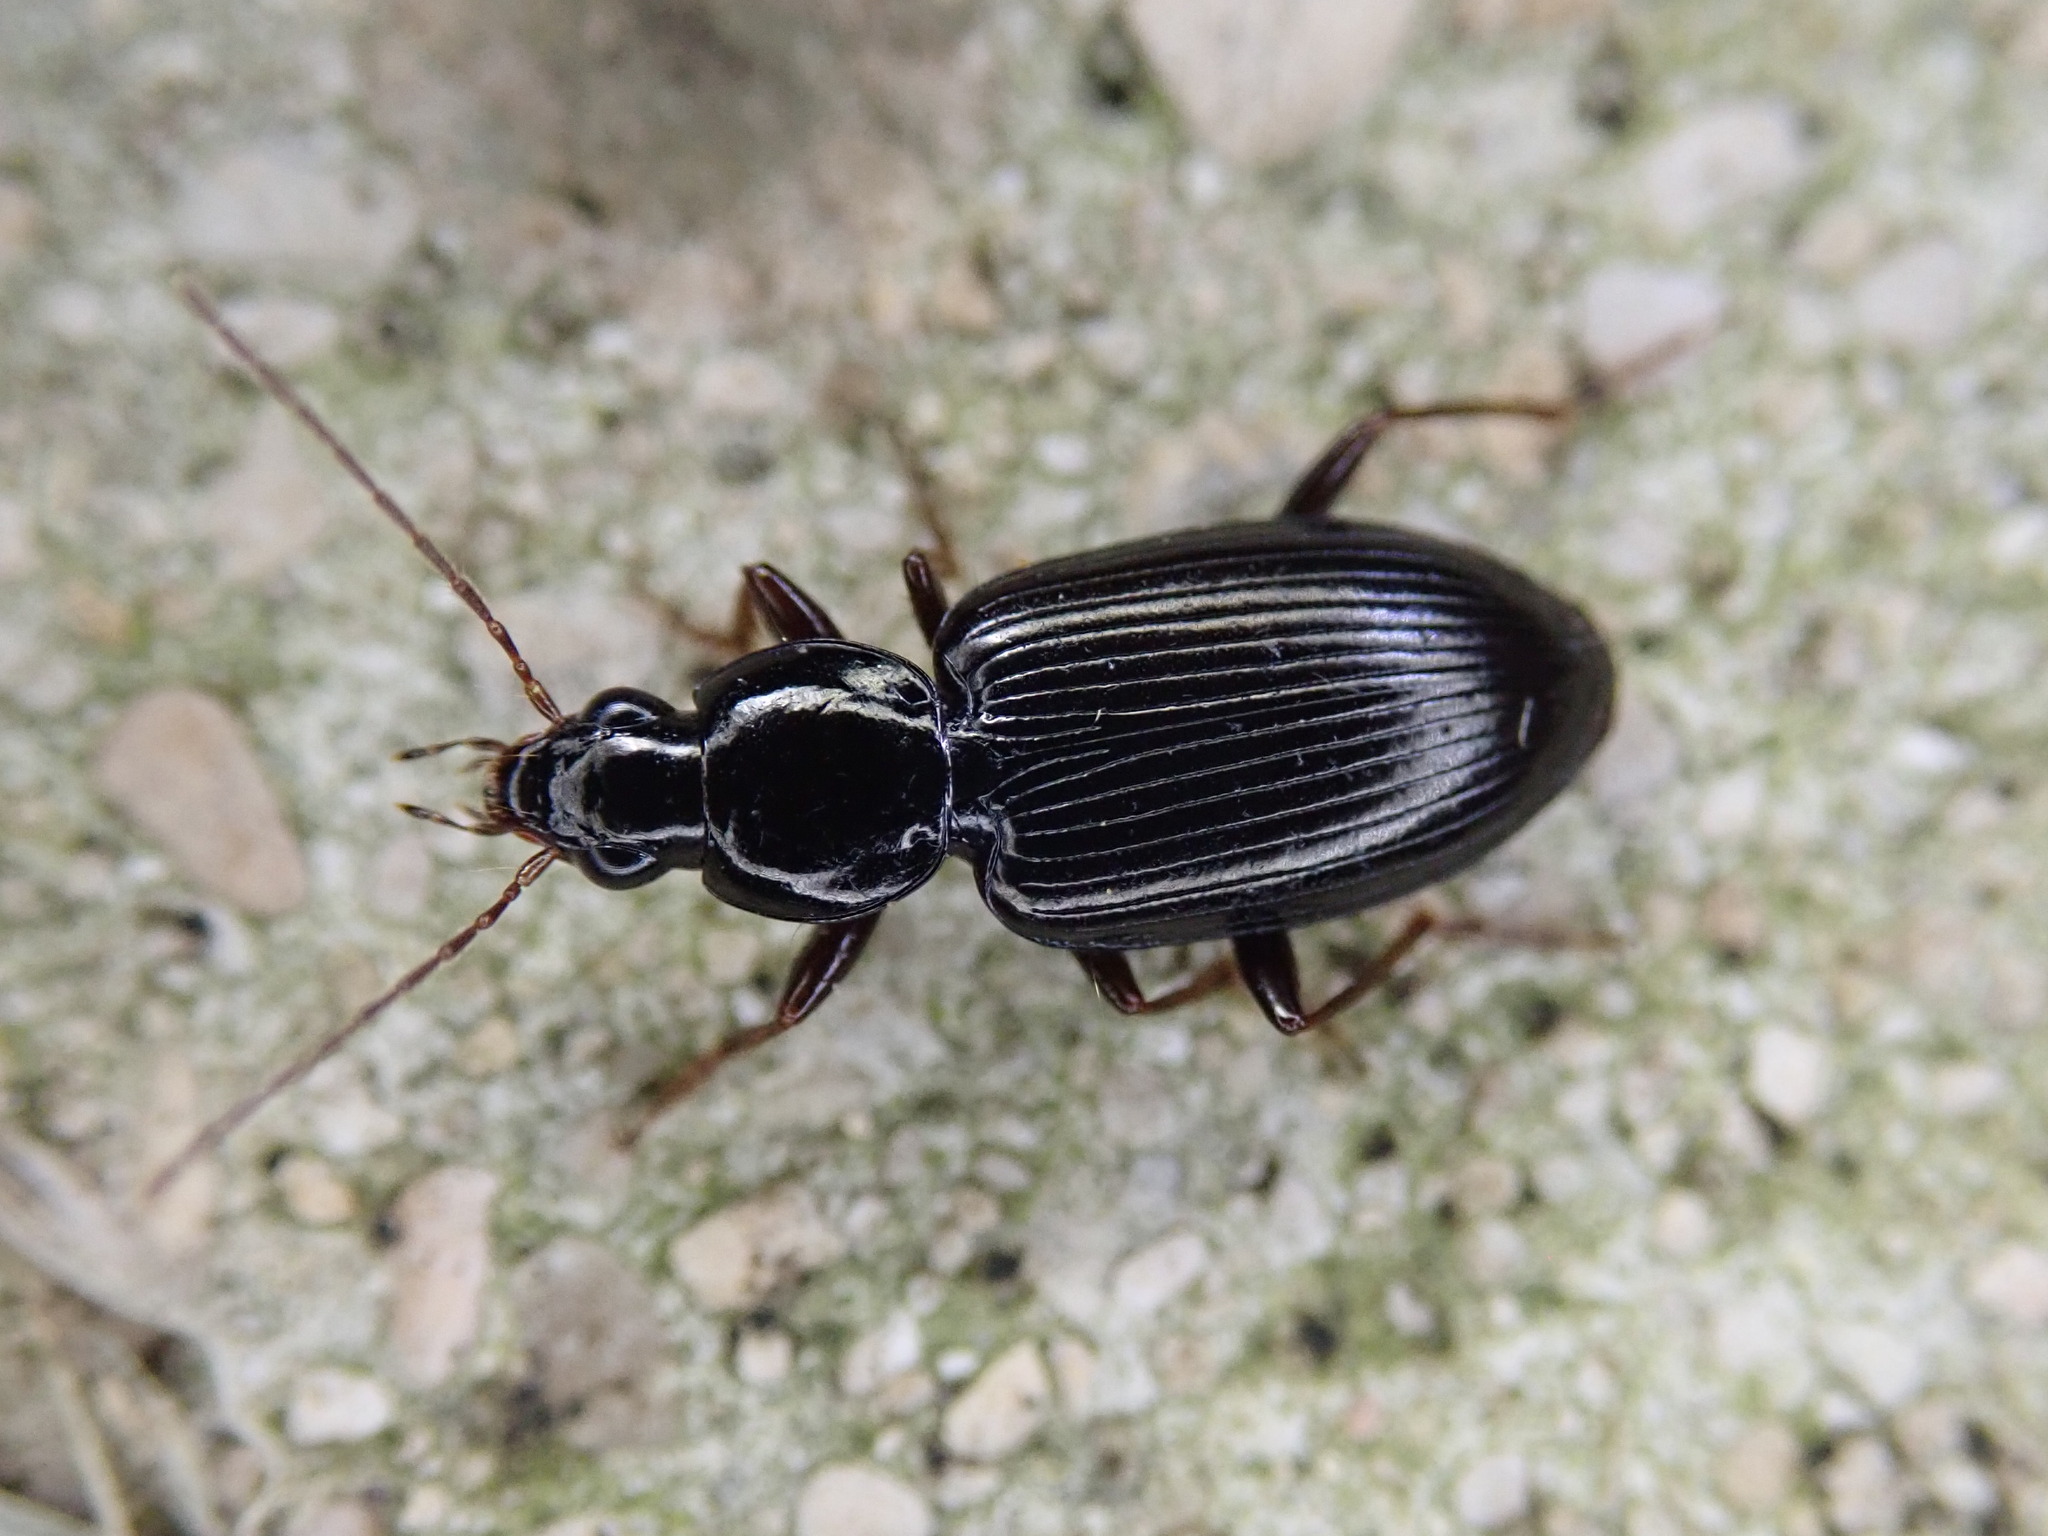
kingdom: Animalia
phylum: Arthropoda
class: Insecta
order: Coleoptera
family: Carabidae
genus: Agonum
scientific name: Agonum punctiforme
